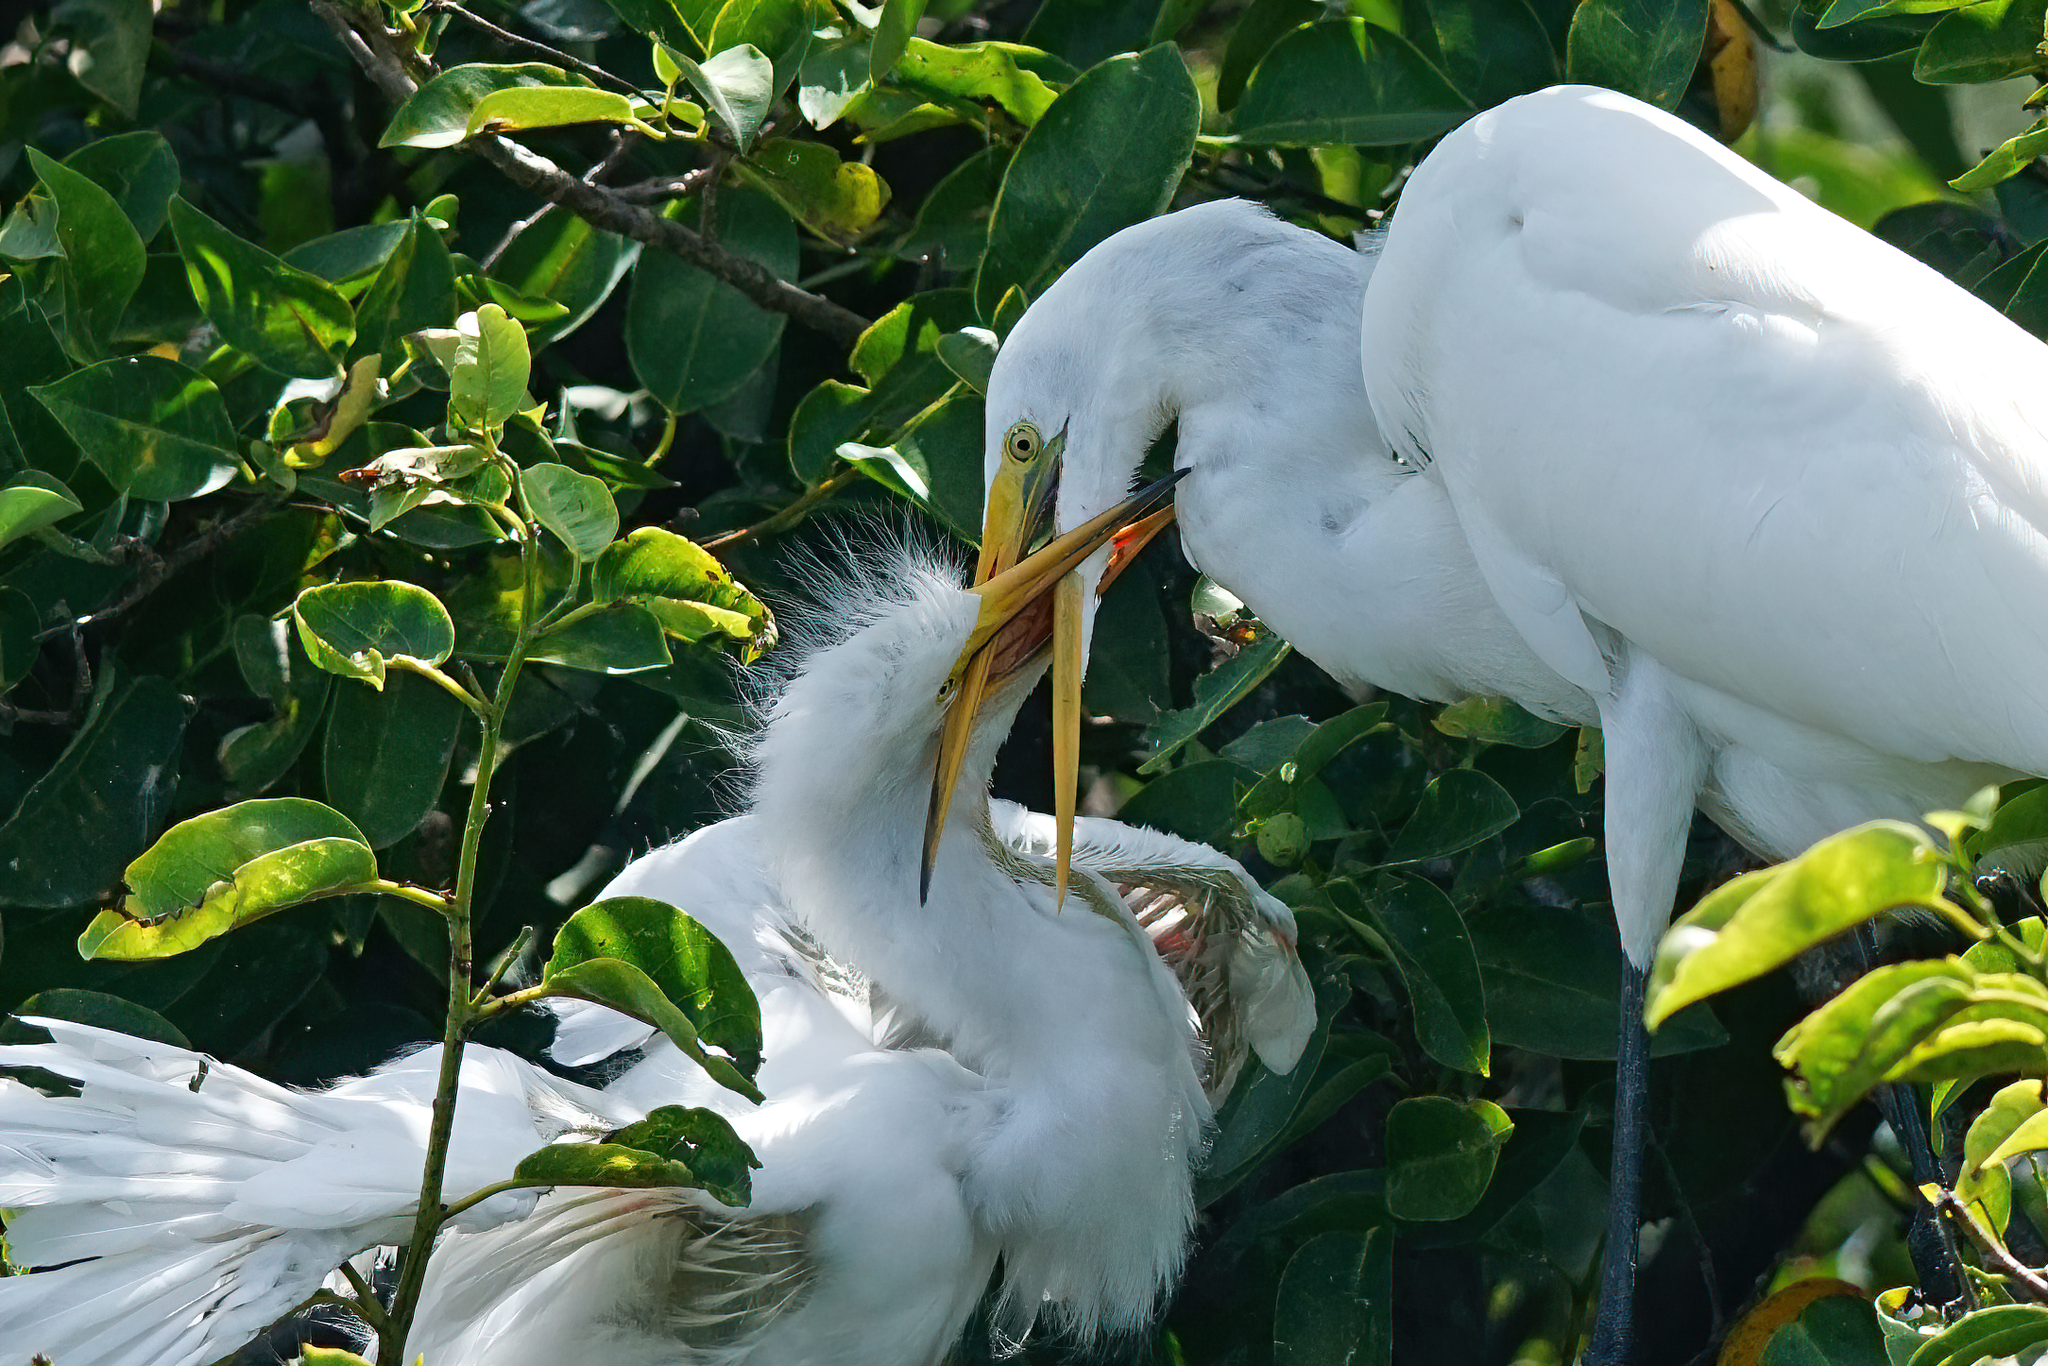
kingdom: Animalia
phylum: Chordata
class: Aves
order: Pelecaniformes
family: Ardeidae
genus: Ardea
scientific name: Ardea alba
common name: Great egret
